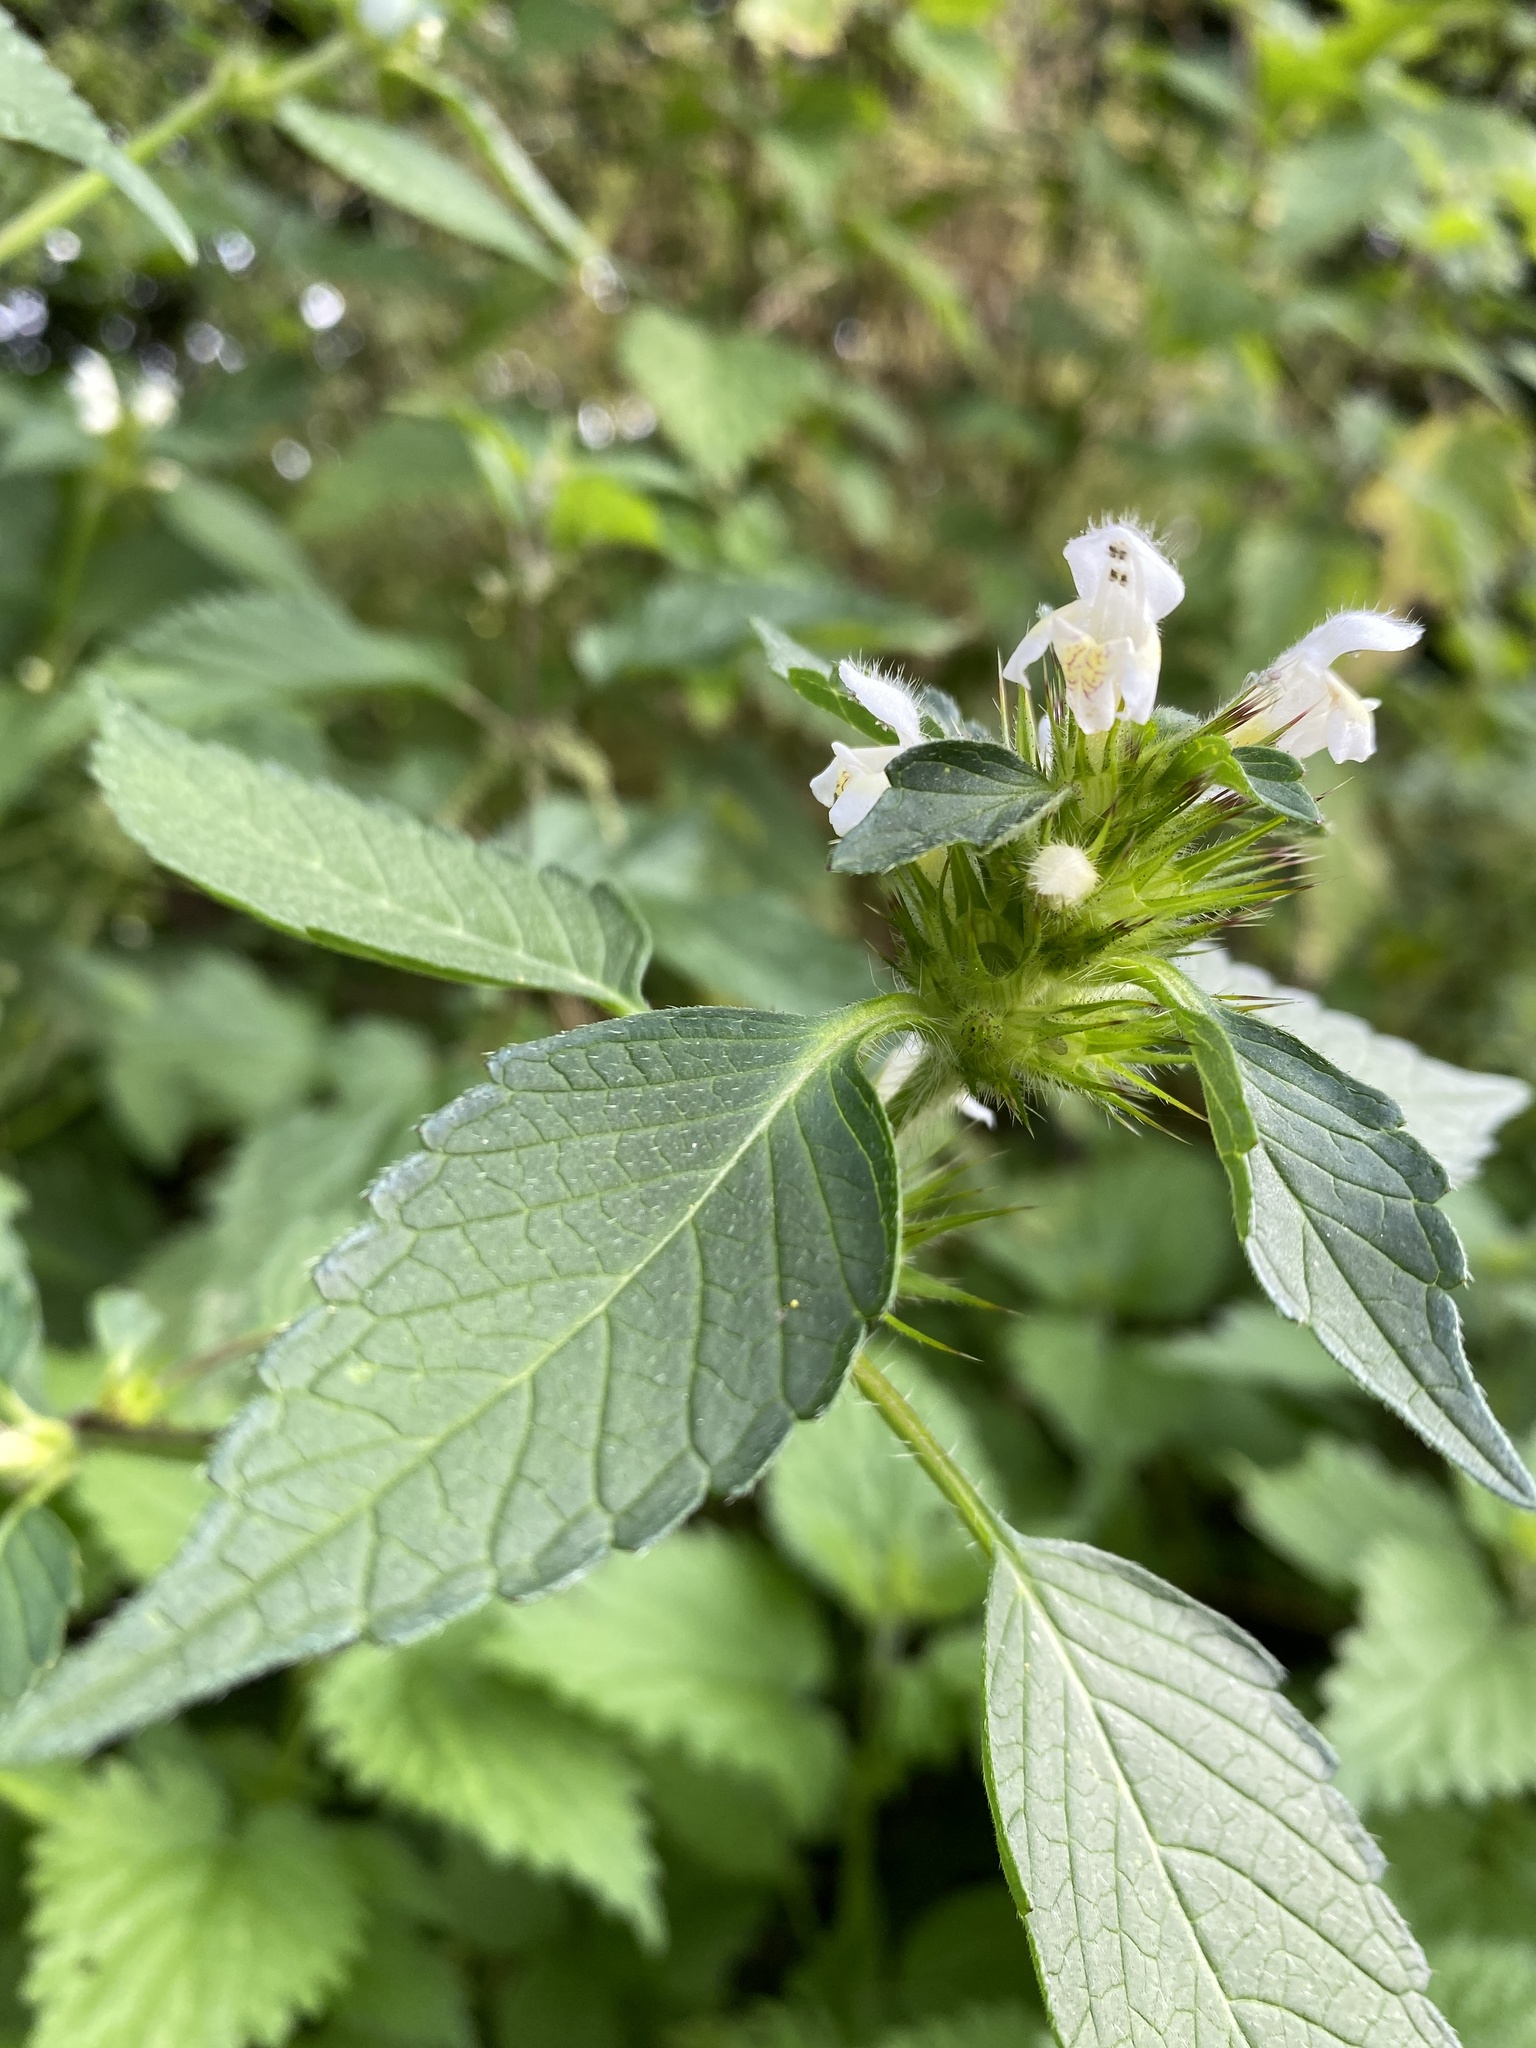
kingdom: Plantae
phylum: Tracheophyta
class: Magnoliopsida
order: Lamiales
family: Lamiaceae
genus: Galeopsis
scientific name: Galeopsis tetrahit
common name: Common hemp-nettle
